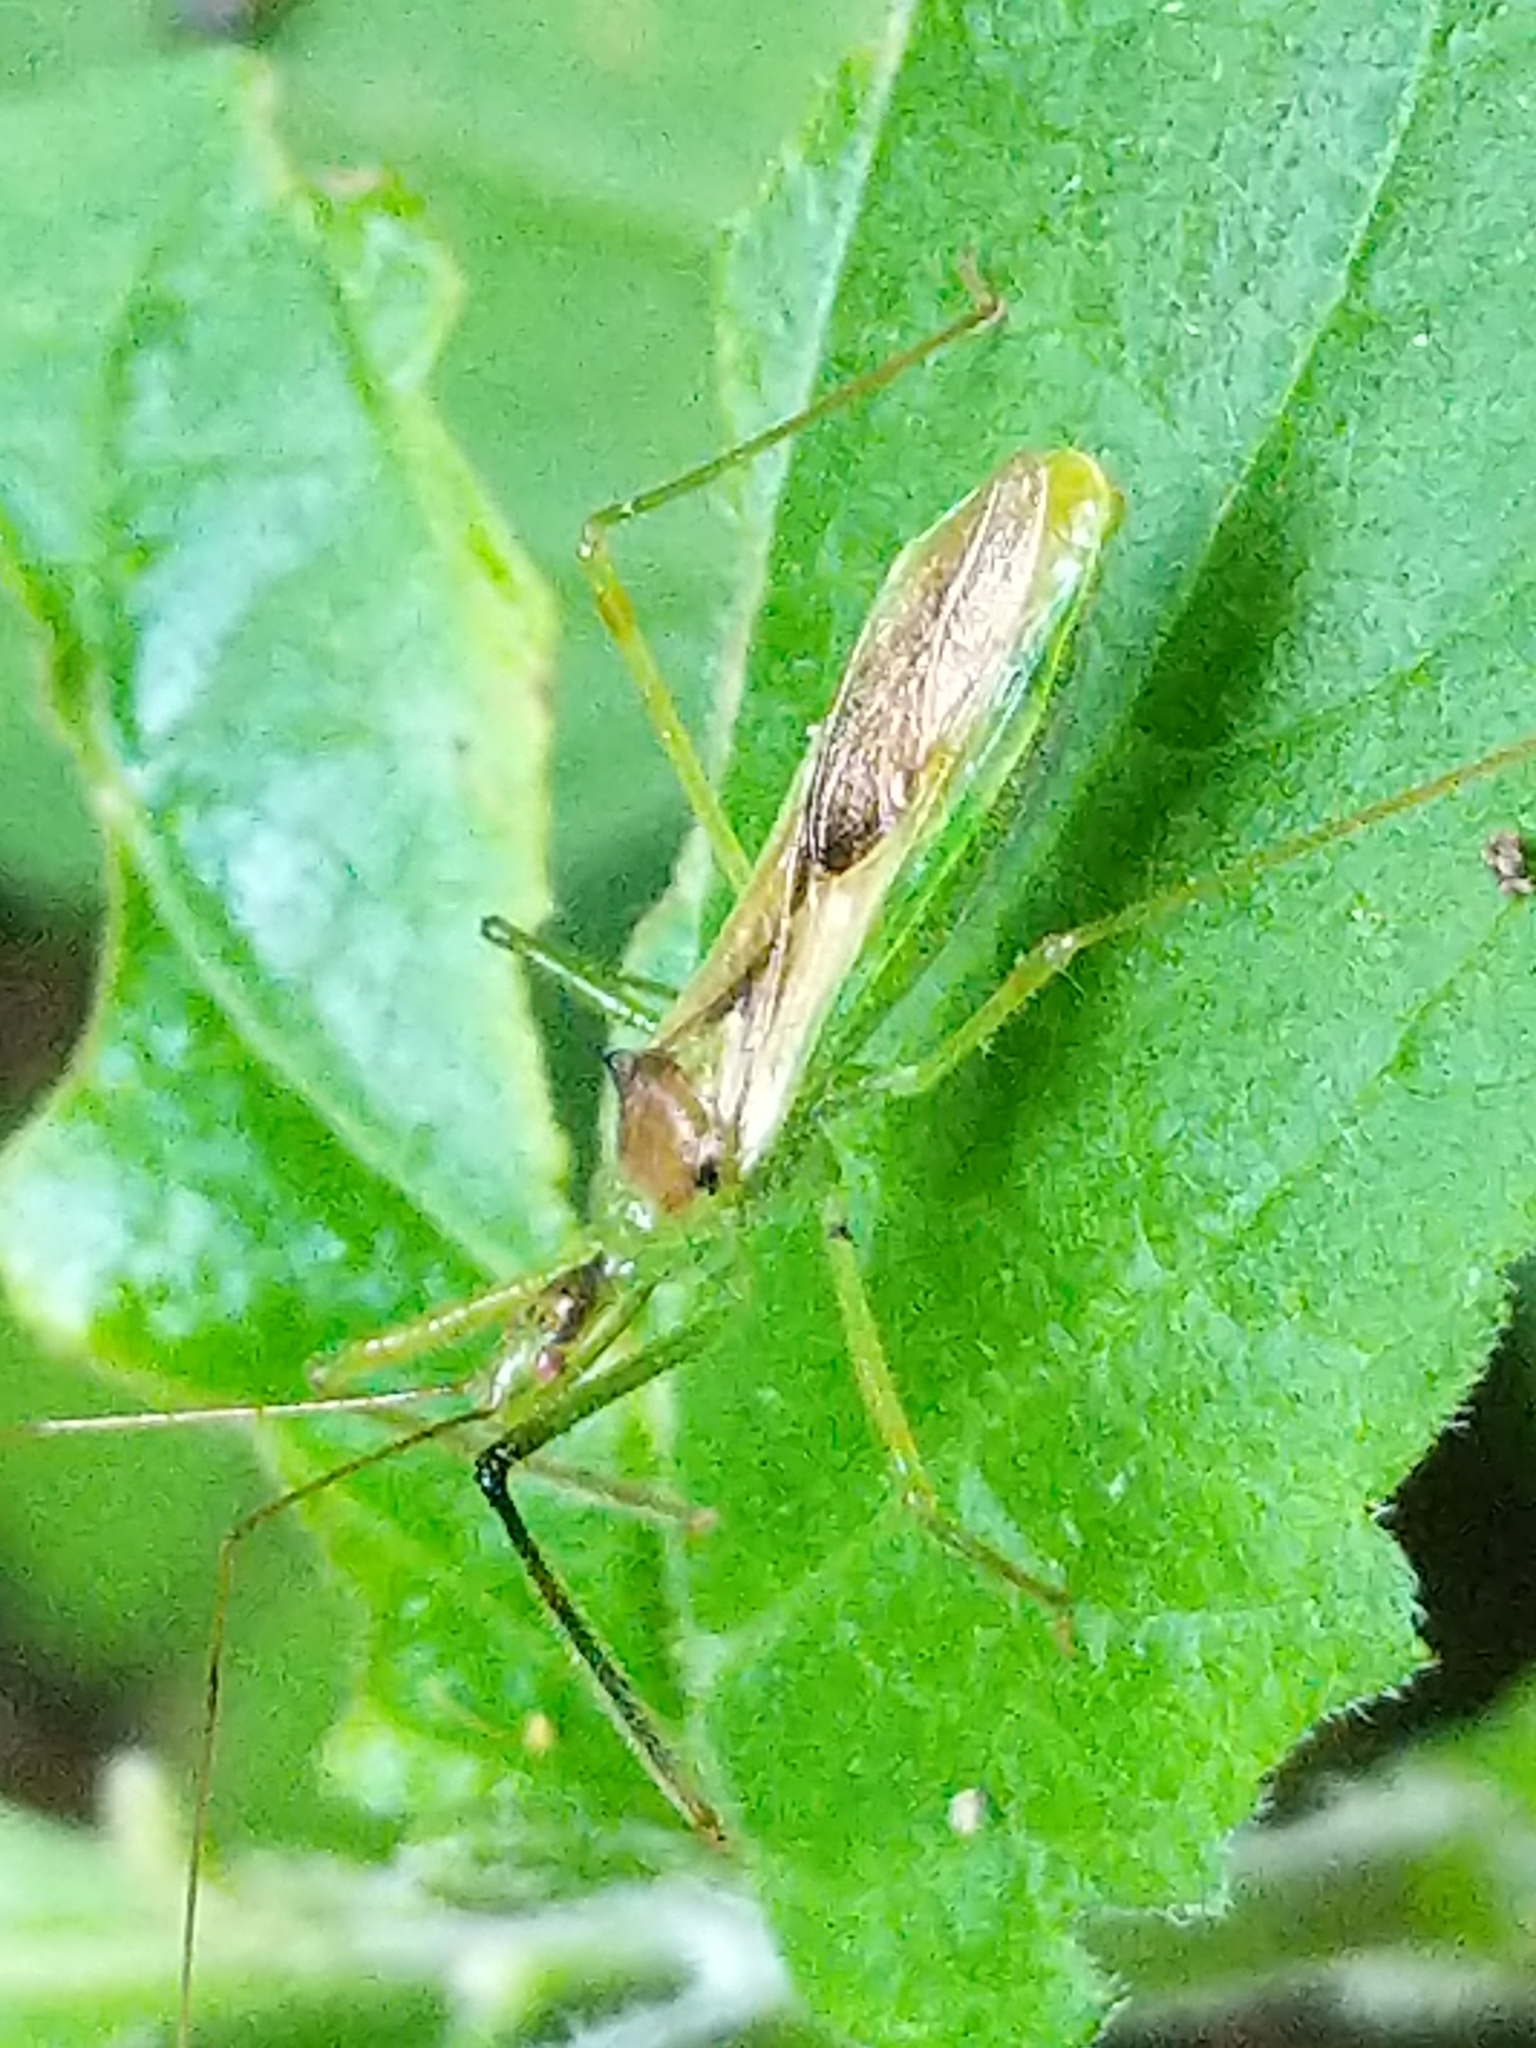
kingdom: Animalia
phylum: Arthropoda
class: Insecta
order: Hemiptera
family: Reduviidae
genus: Zelus
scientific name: Zelus luridus
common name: Pale green assassin bug
